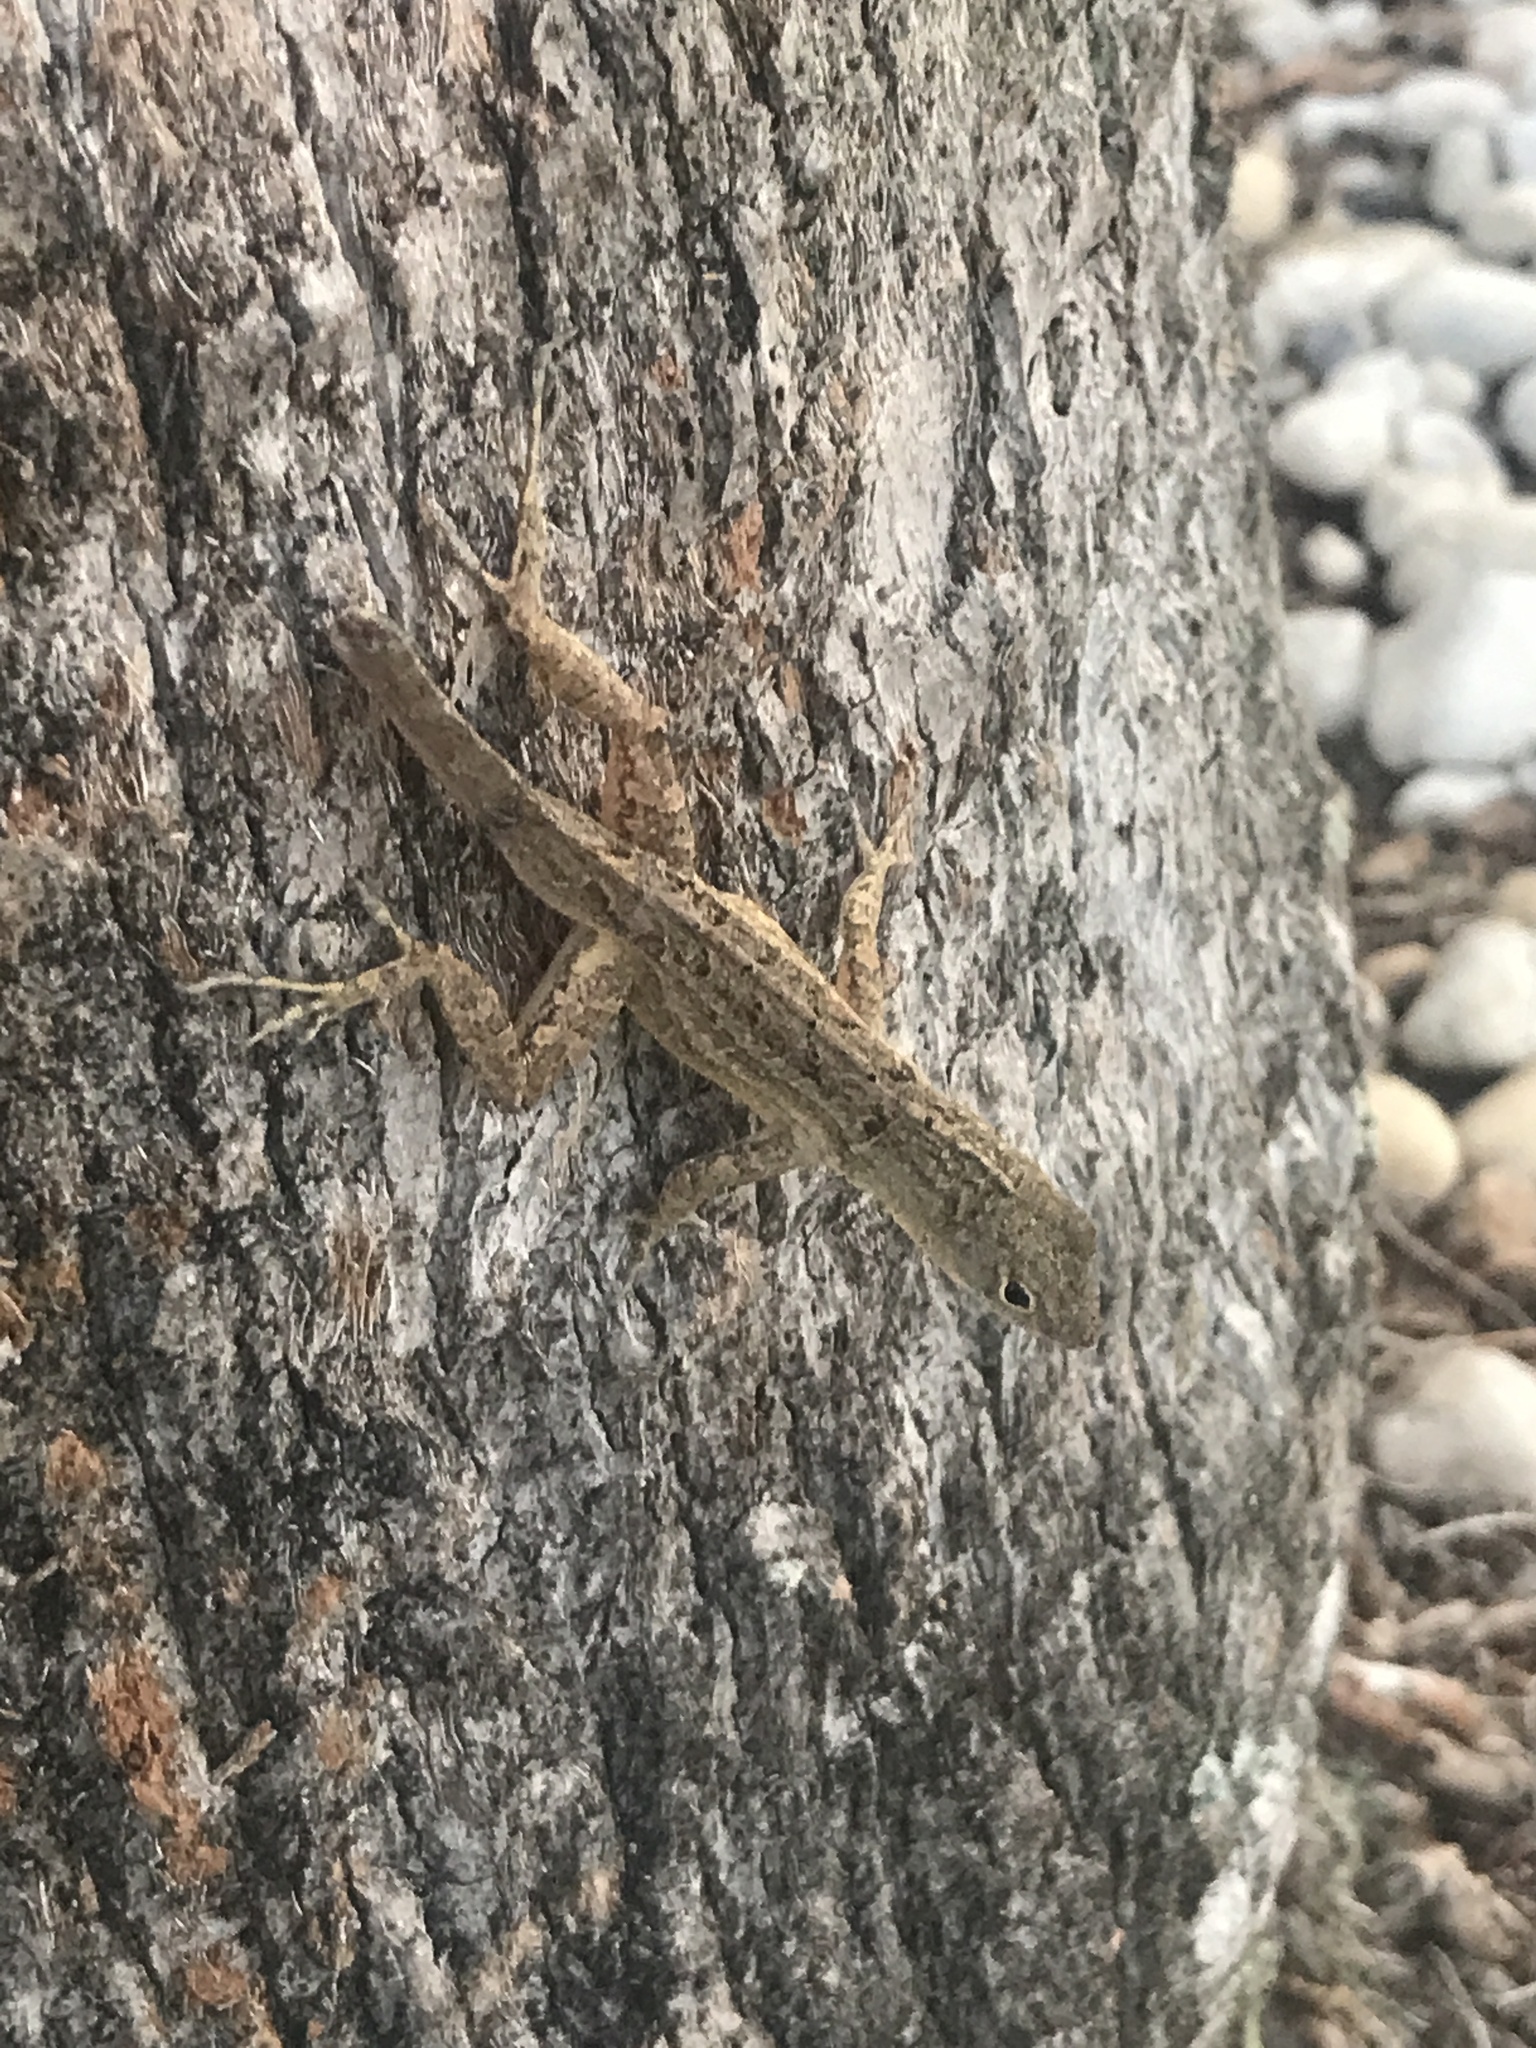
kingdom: Animalia
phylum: Chordata
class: Squamata
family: Dactyloidae
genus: Anolis
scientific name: Anolis sagrei
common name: Brown anole
